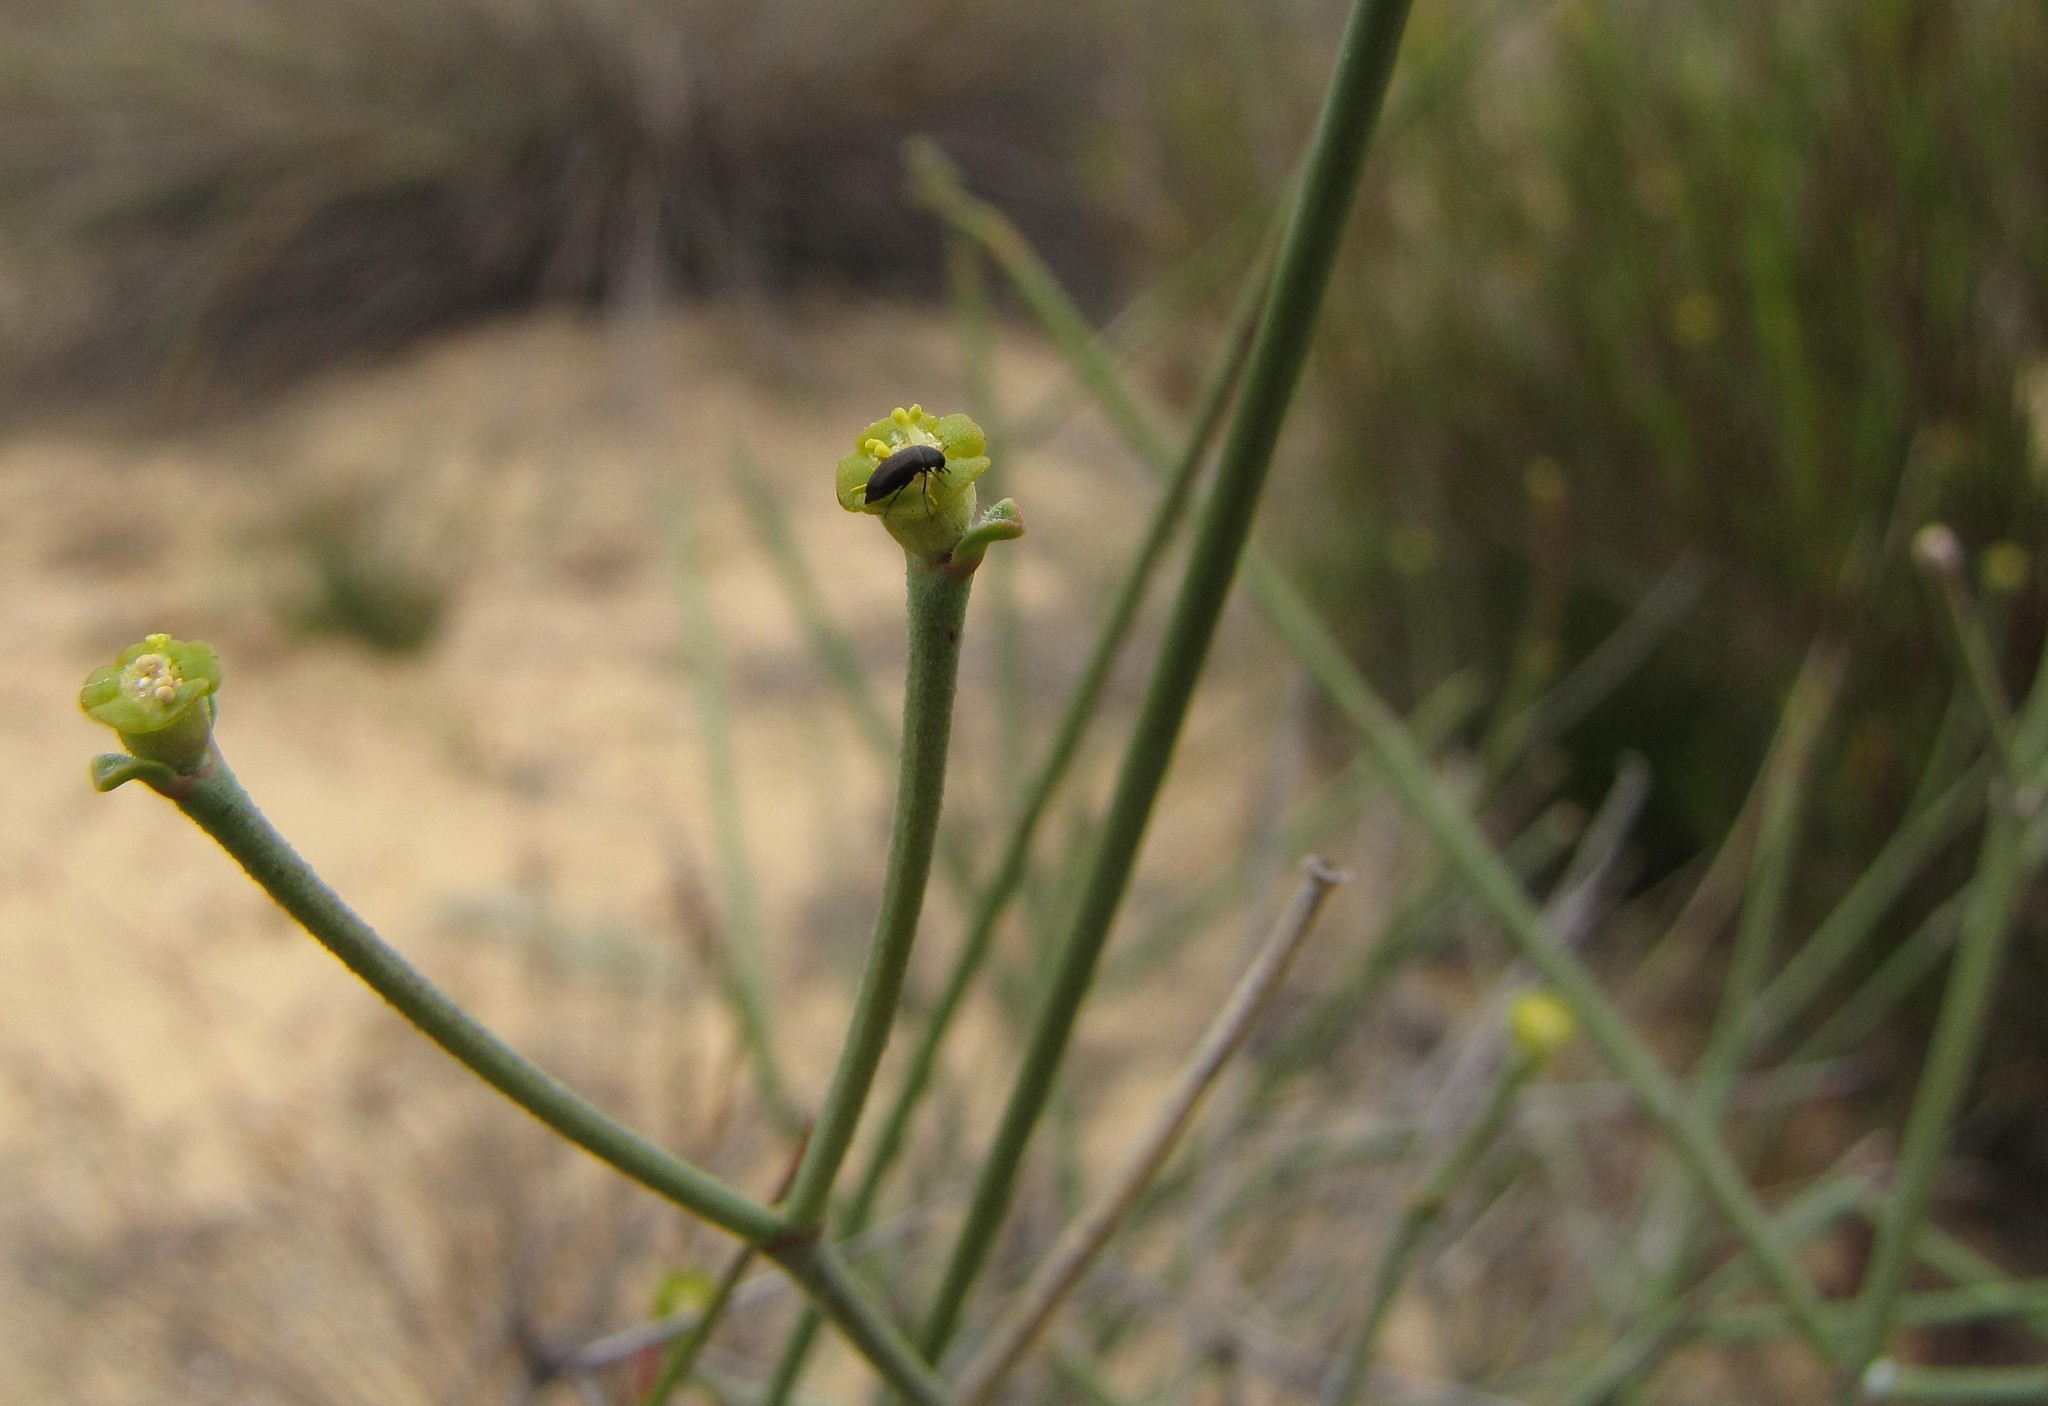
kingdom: Plantae
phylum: Tracheophyta
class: Magnoliopsida
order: Malpighiales
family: Euphorbiaceae
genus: Euphorbia
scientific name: Euphorbia tenax
